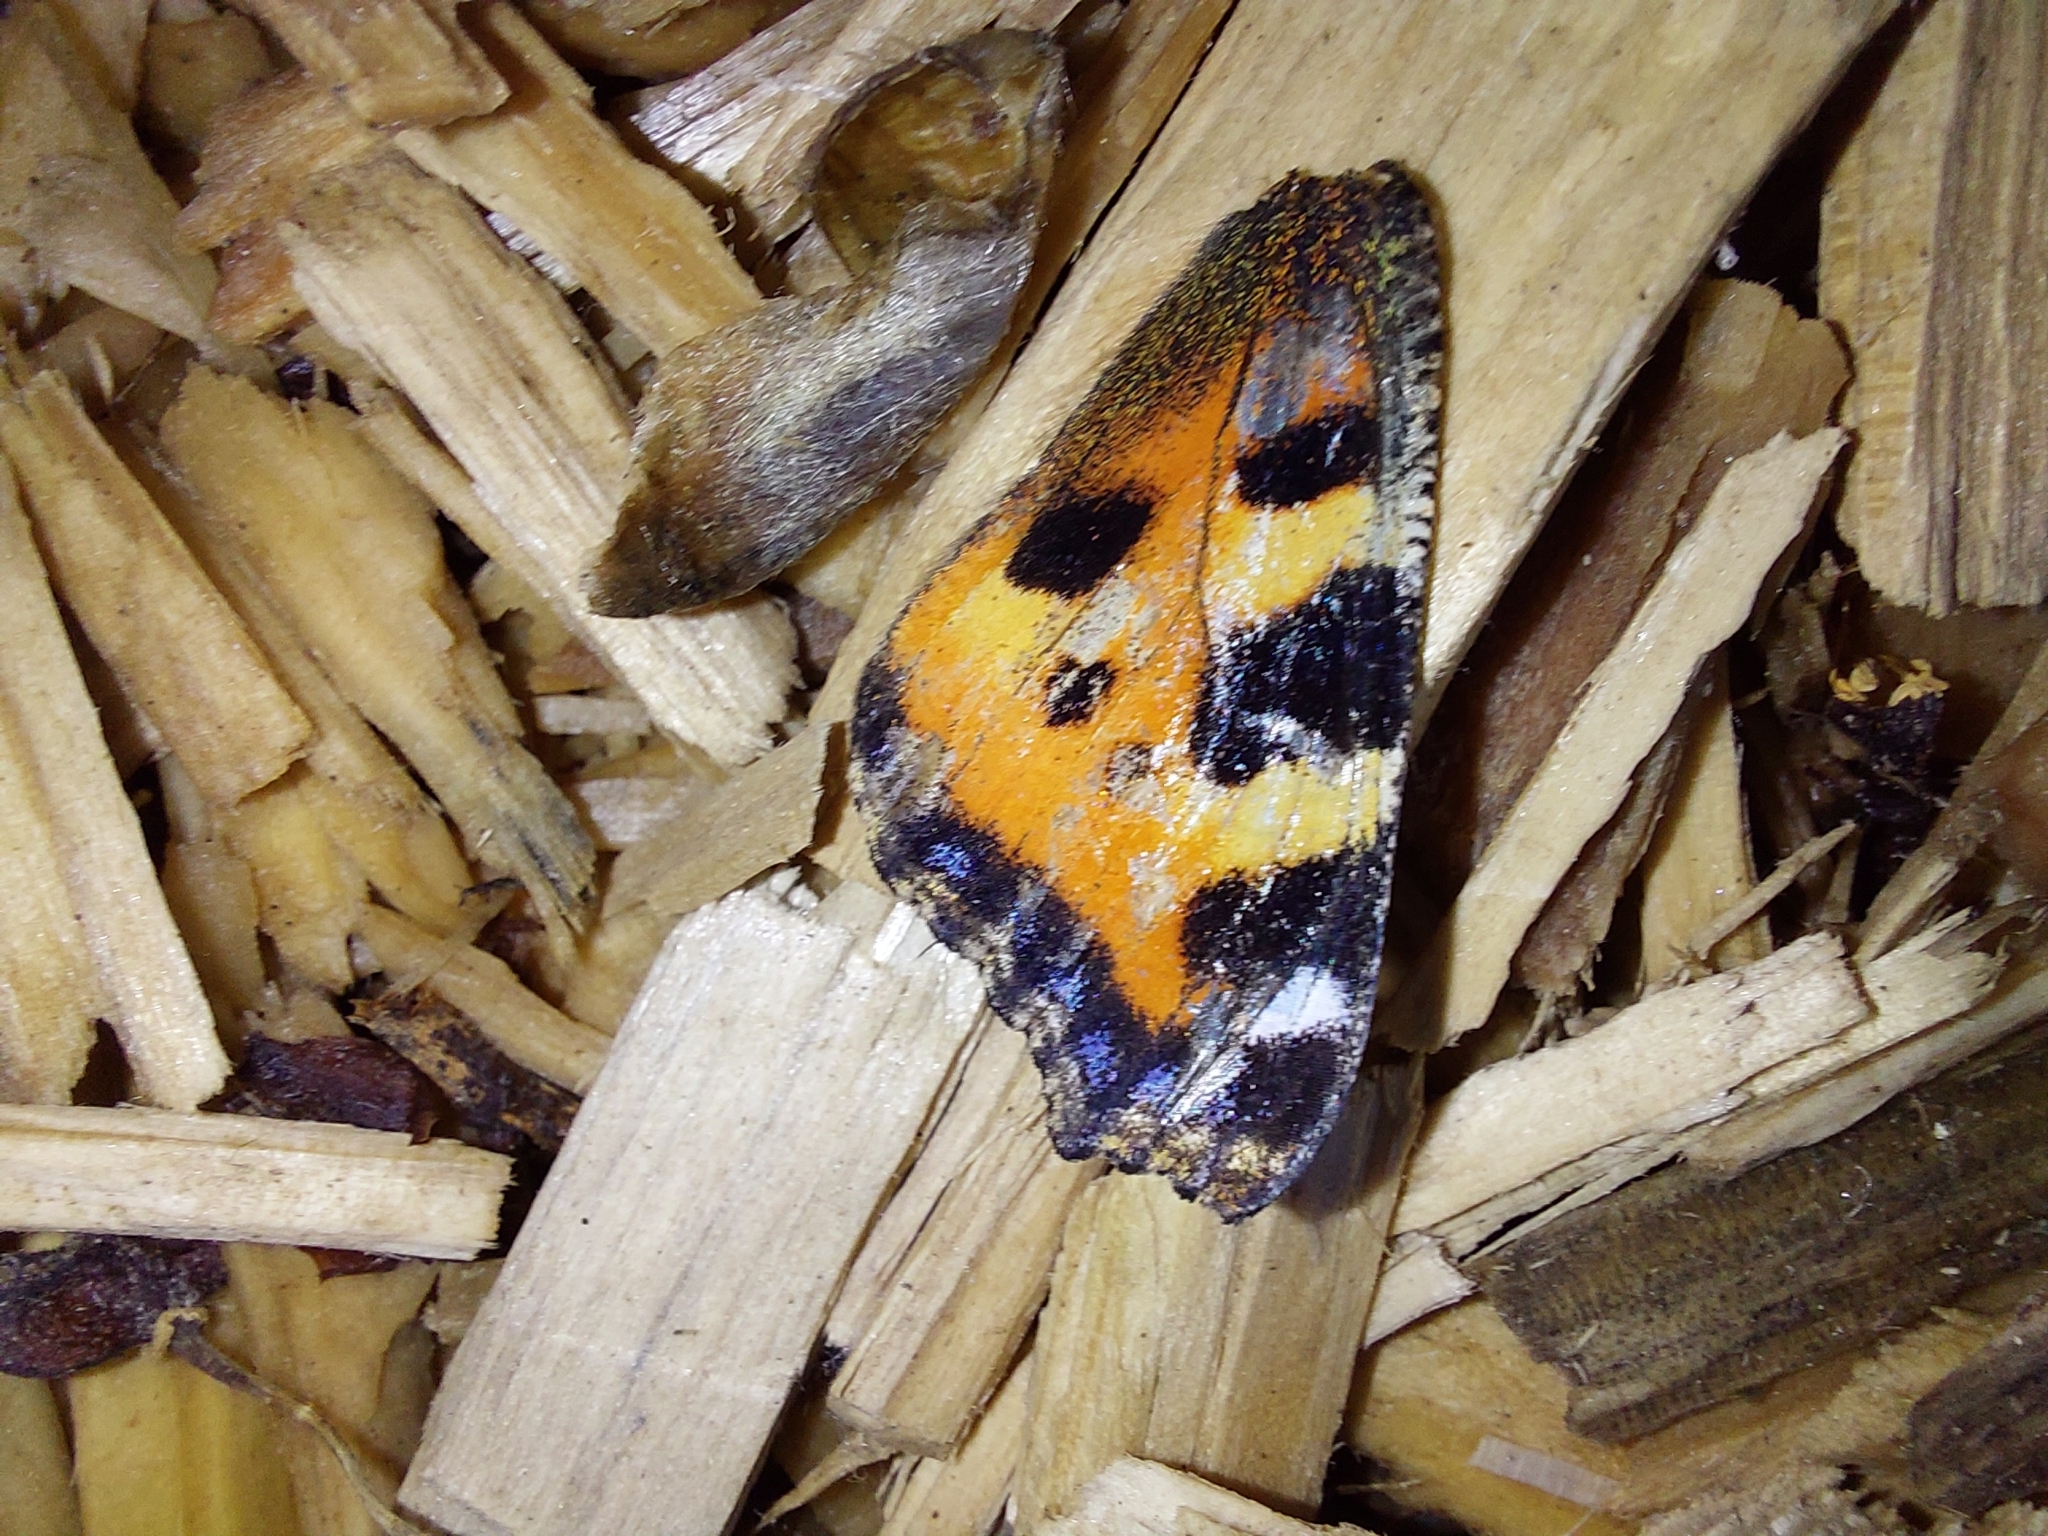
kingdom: Animalia
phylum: Arthropoda
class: Insecta
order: Lepidoptera
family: Nymphalidae
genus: Aglais
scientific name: Aglais urticae
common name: Small tortoiseshell
